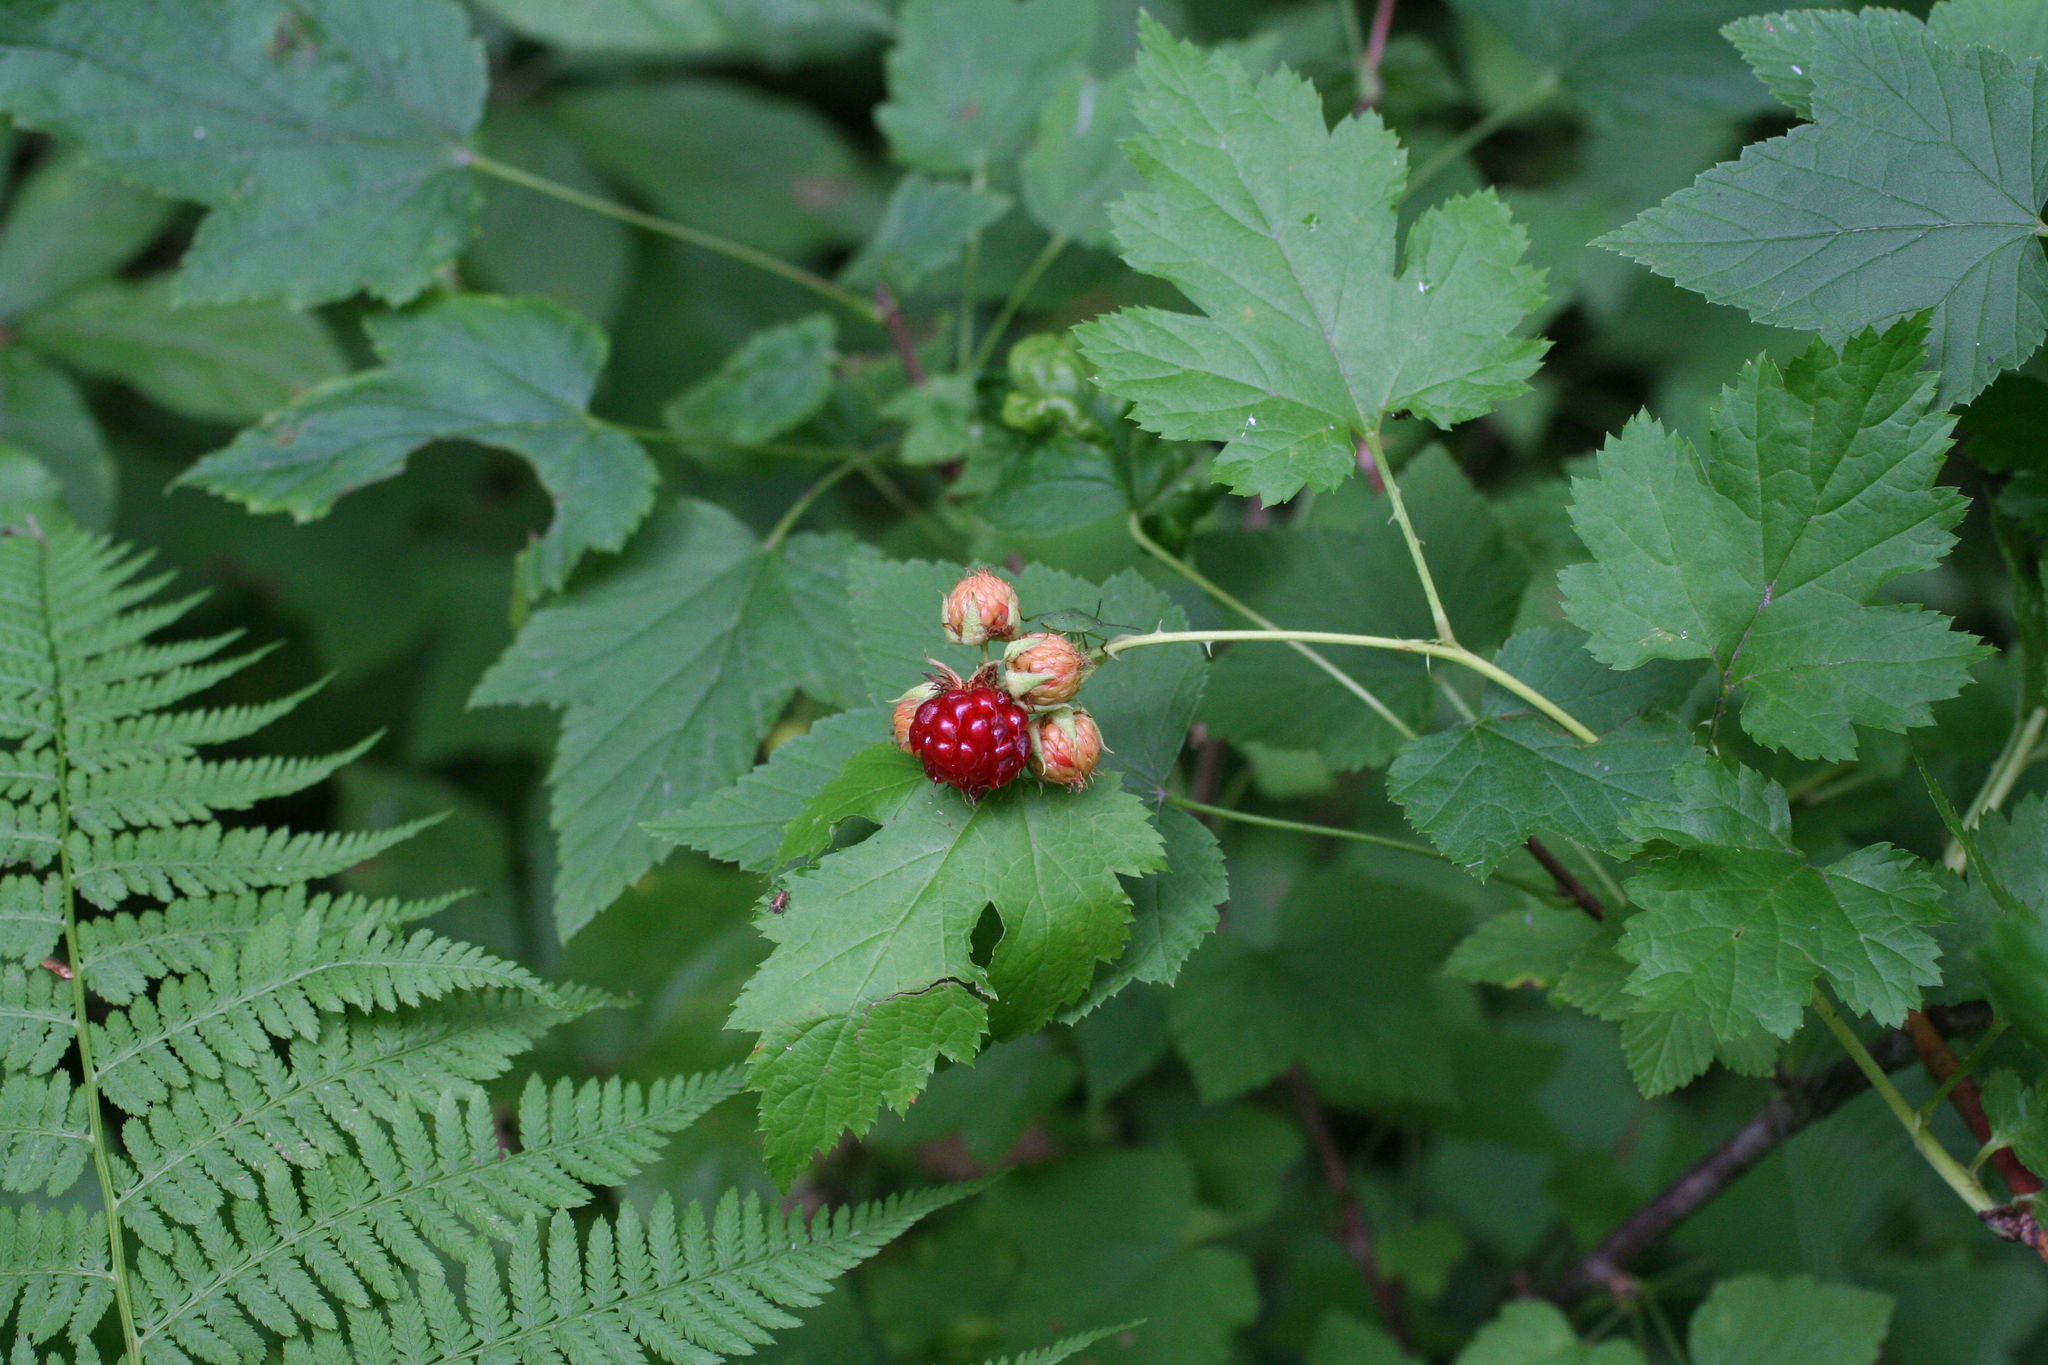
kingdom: Plantae
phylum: Tracheophyta
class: Magnoliopsida
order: Rosales
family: Rosaceae
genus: Rubus
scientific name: Rubus crataegifolius
